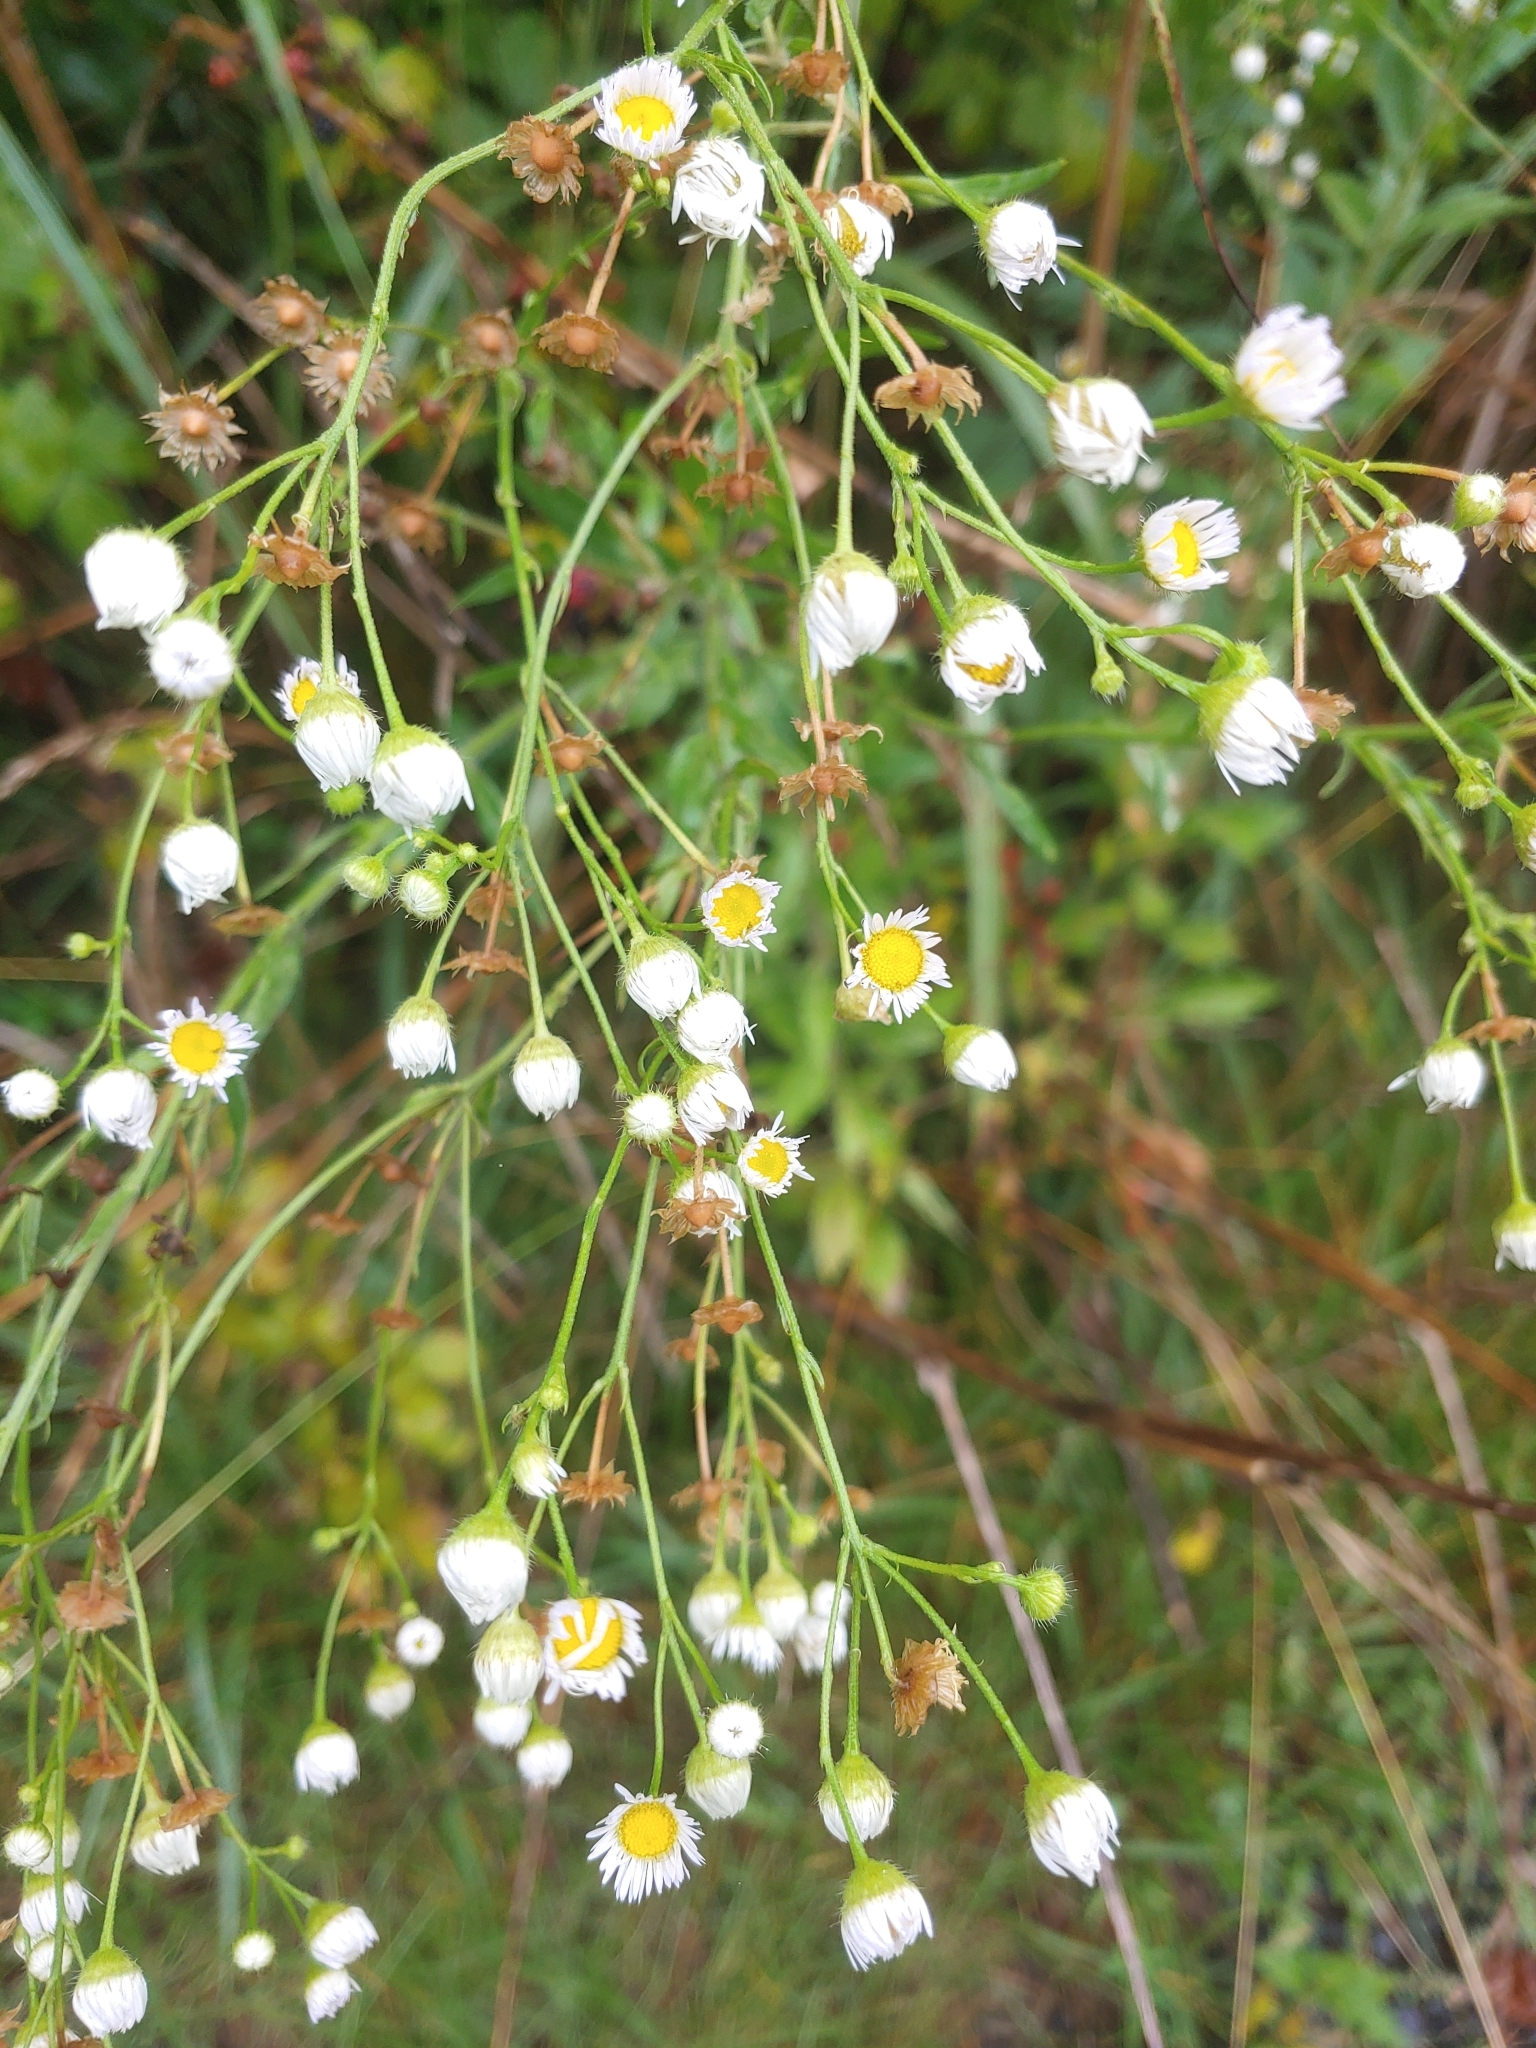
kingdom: Plantae
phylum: Tracheophyta
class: Magnoliopsida
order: Asterales
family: Asteraceae
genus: Erigeron
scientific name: Erigeron strigosus
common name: Common eastern fleabane
